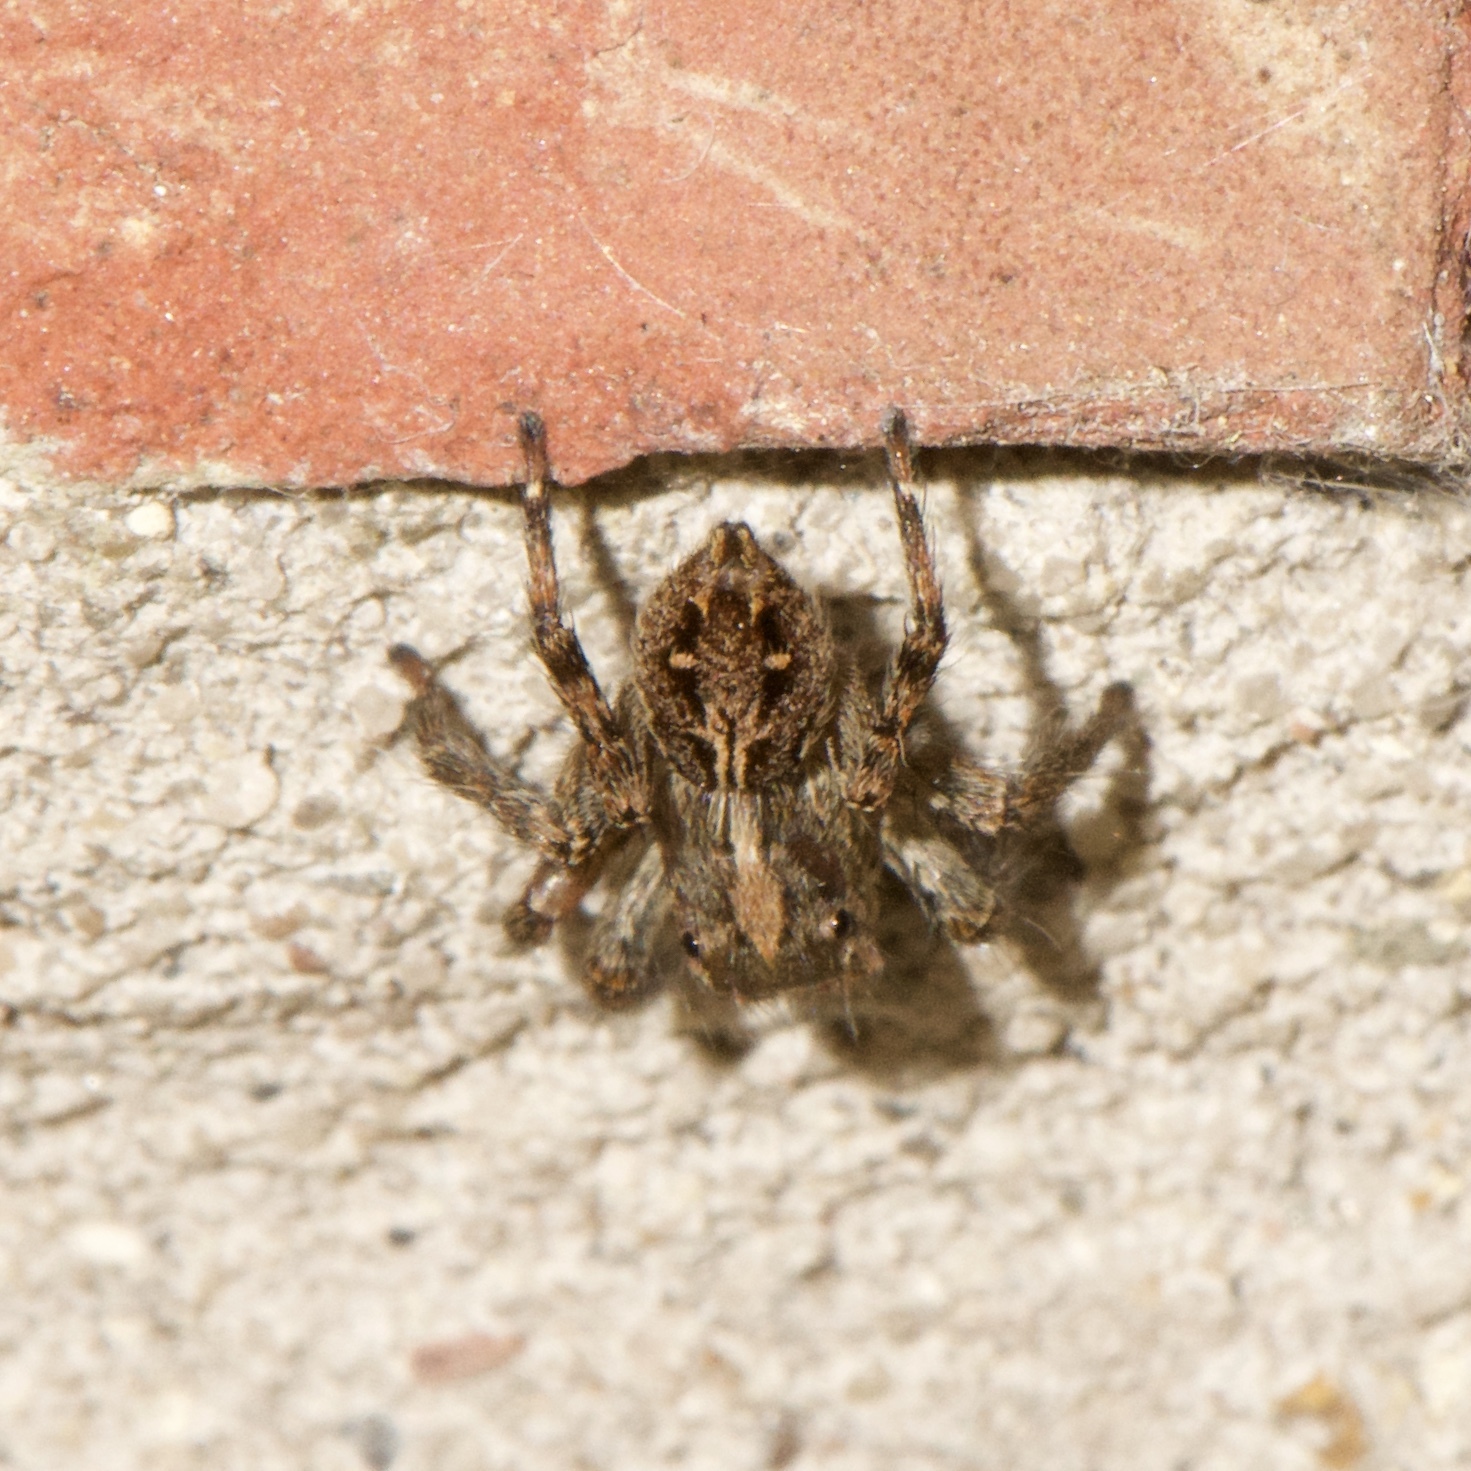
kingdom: Animalia
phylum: Arthropoda
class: Arachnida
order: Araneae
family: Salticidae
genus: Plexippus
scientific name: Plexippus paykulli
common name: Pantropical jumper
